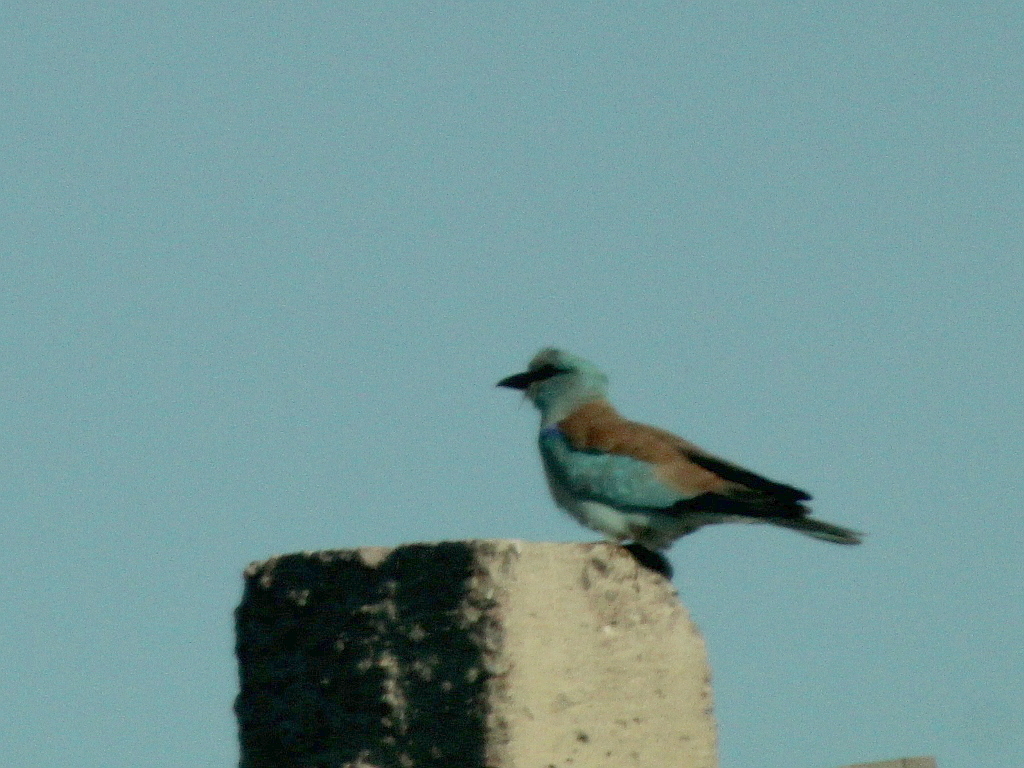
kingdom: Animalia
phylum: Chordata
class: Aves
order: Coraciiformes
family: Coraciidae
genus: Coracias
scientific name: Coracias garrulus
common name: European roller
